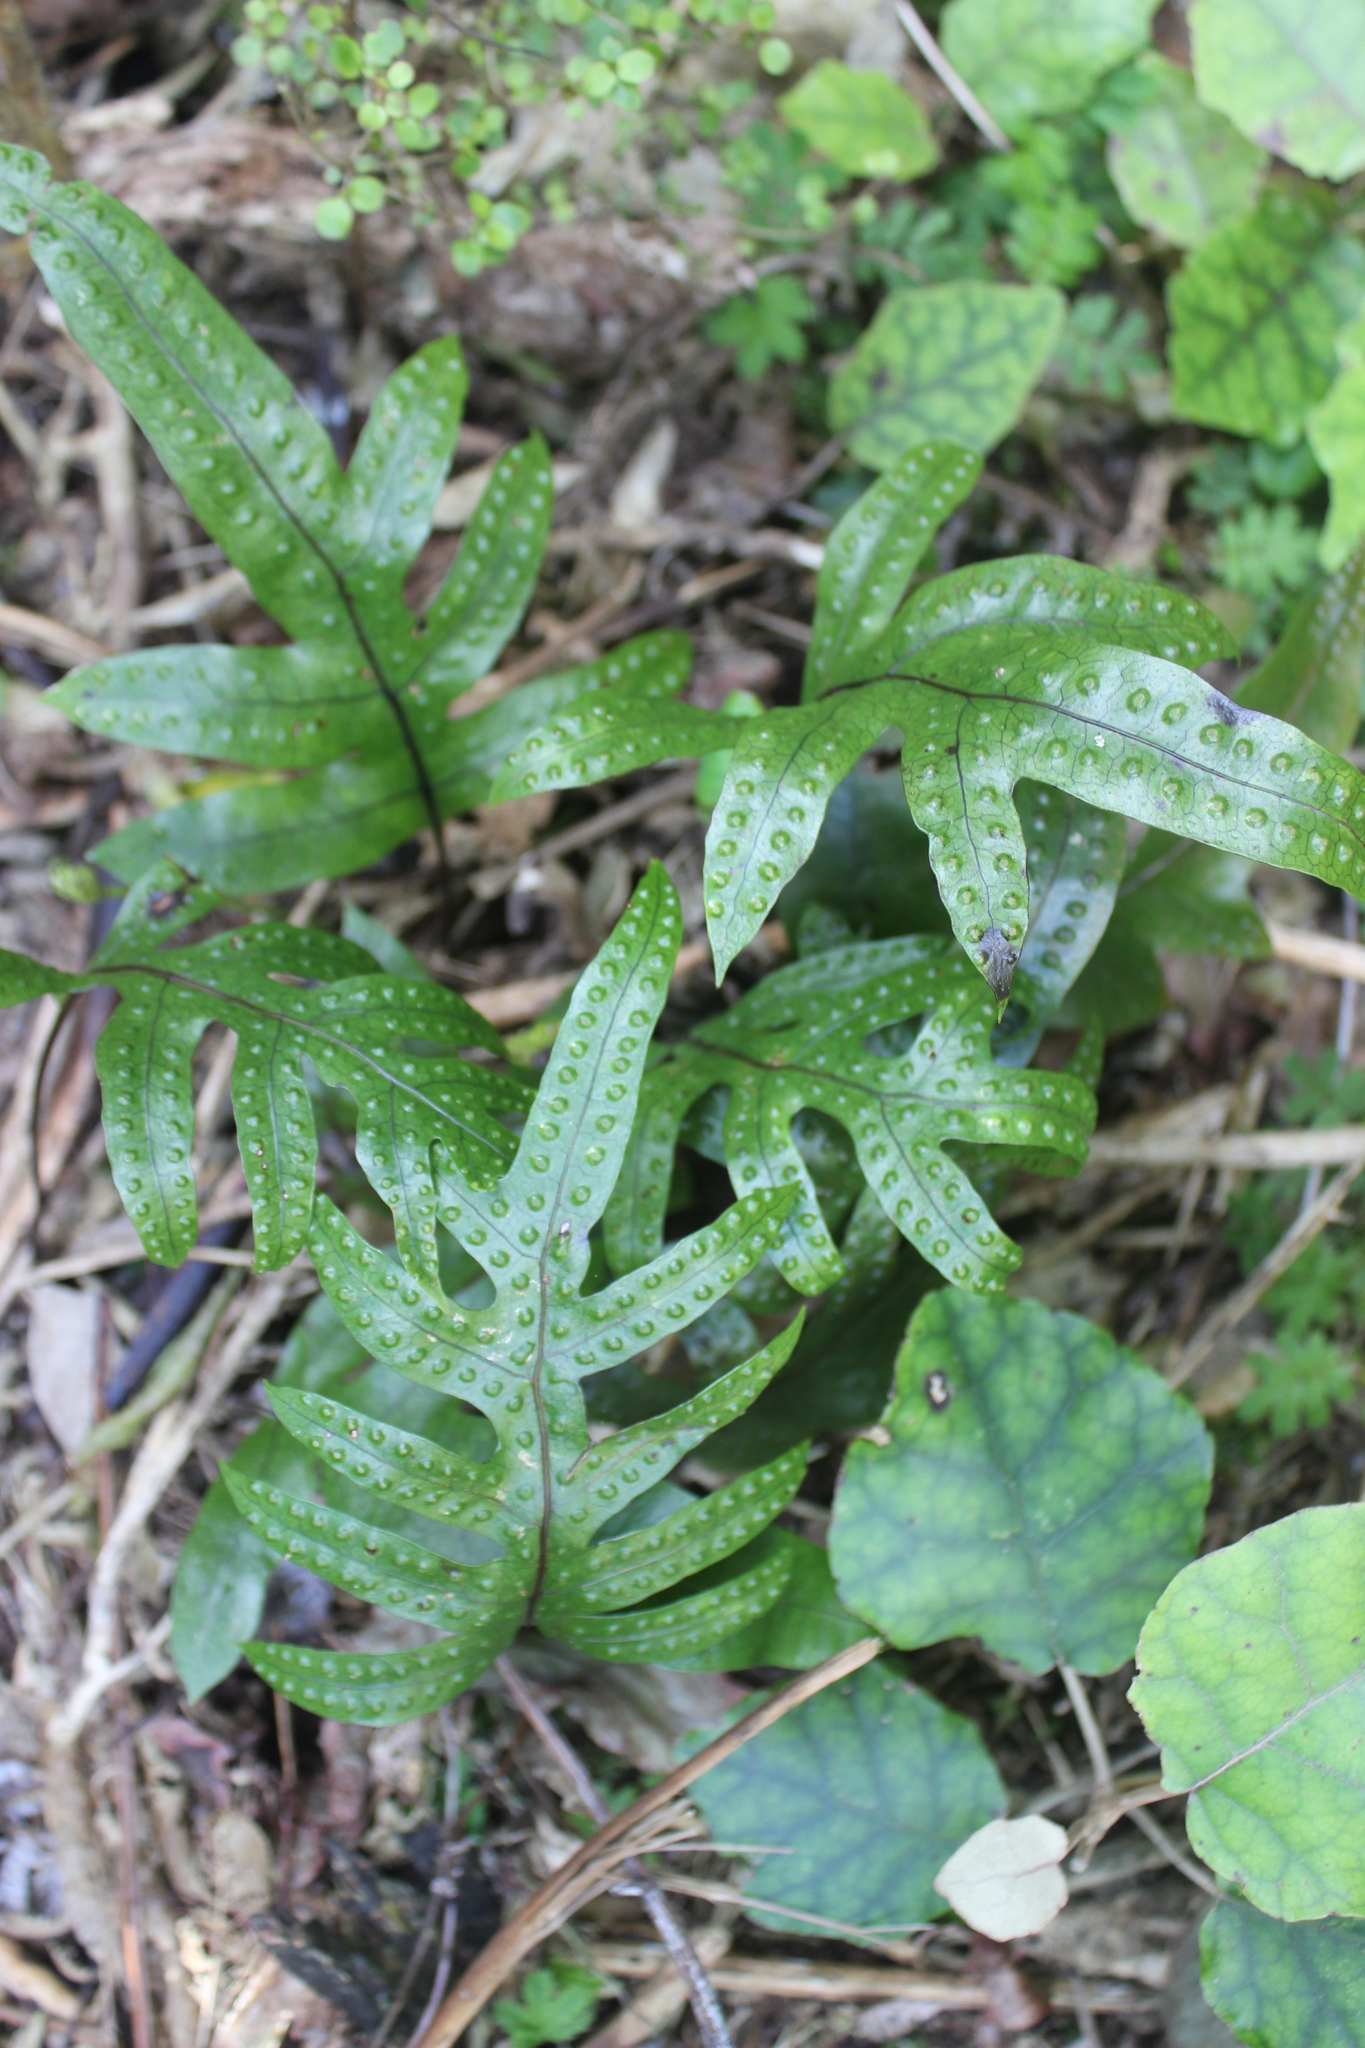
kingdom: Plantae
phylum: Tracheophyta
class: Polypodiopsida
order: Polypodiales
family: Polypodiaceae
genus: Lecanopteris
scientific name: Lecanopteris pustulata
